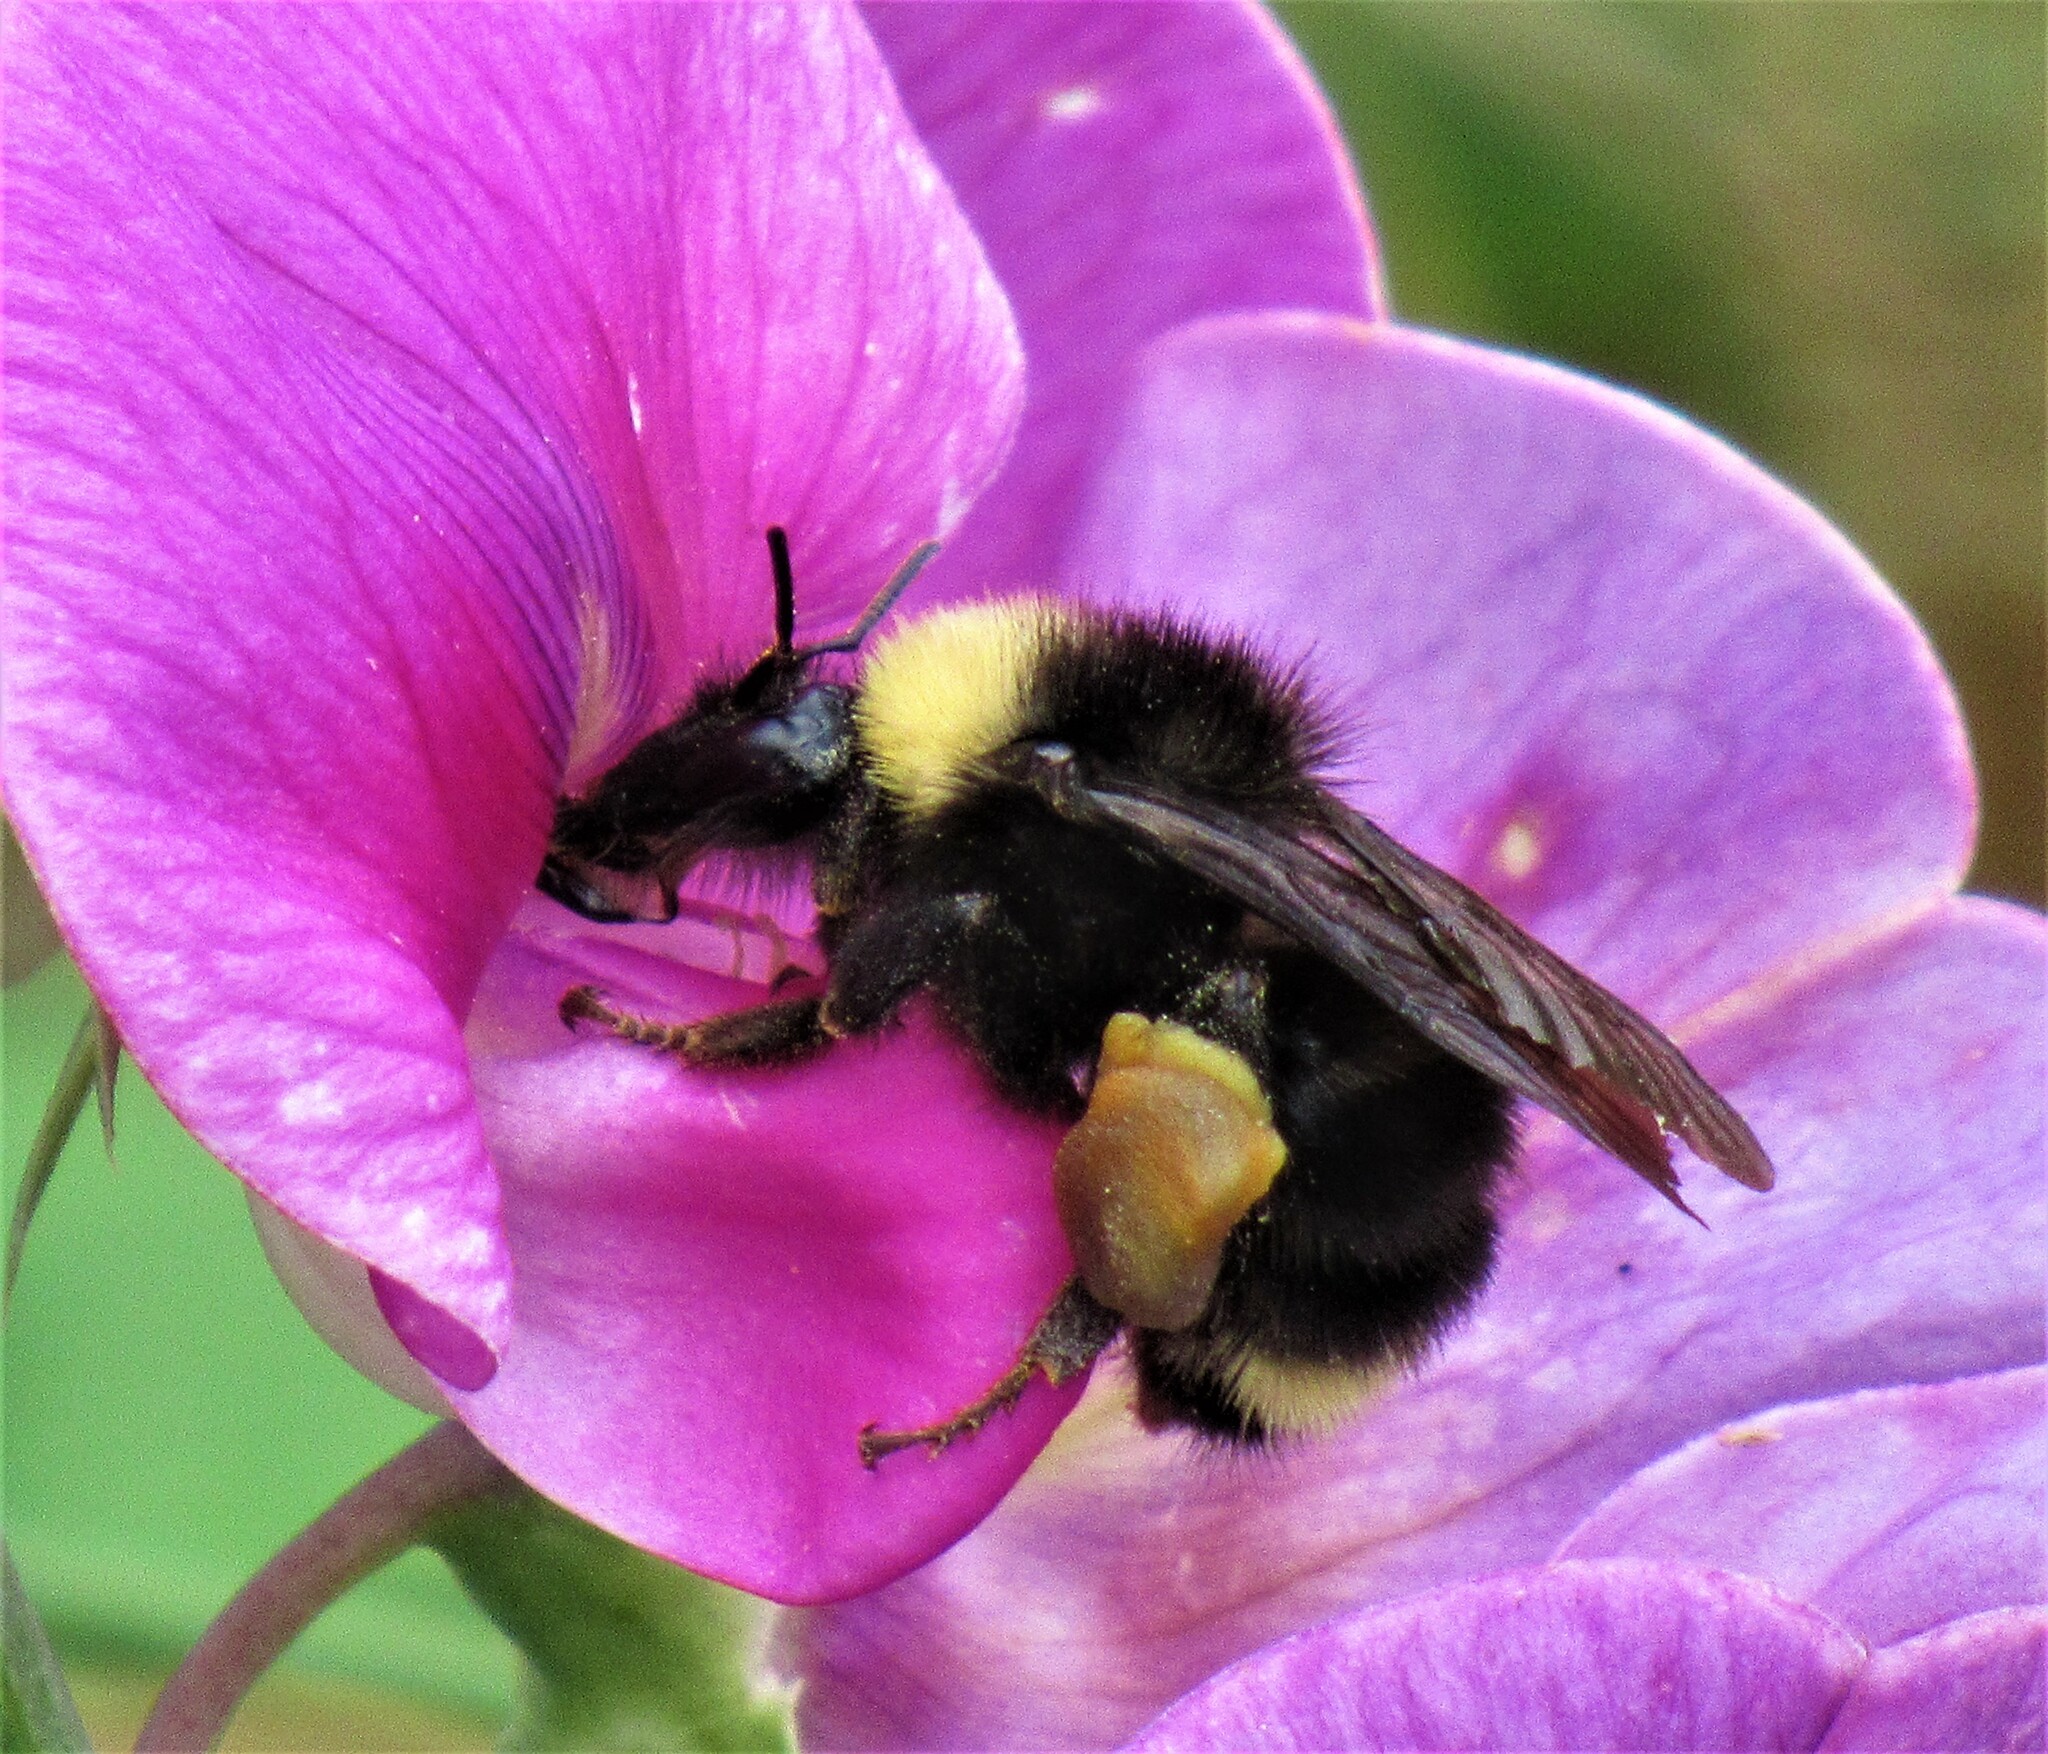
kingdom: Animalia
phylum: Arthropoda
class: Insecta
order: Hymenoptera
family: Apidae
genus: Bombus
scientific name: Bombus californicus
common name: California bumble bee
